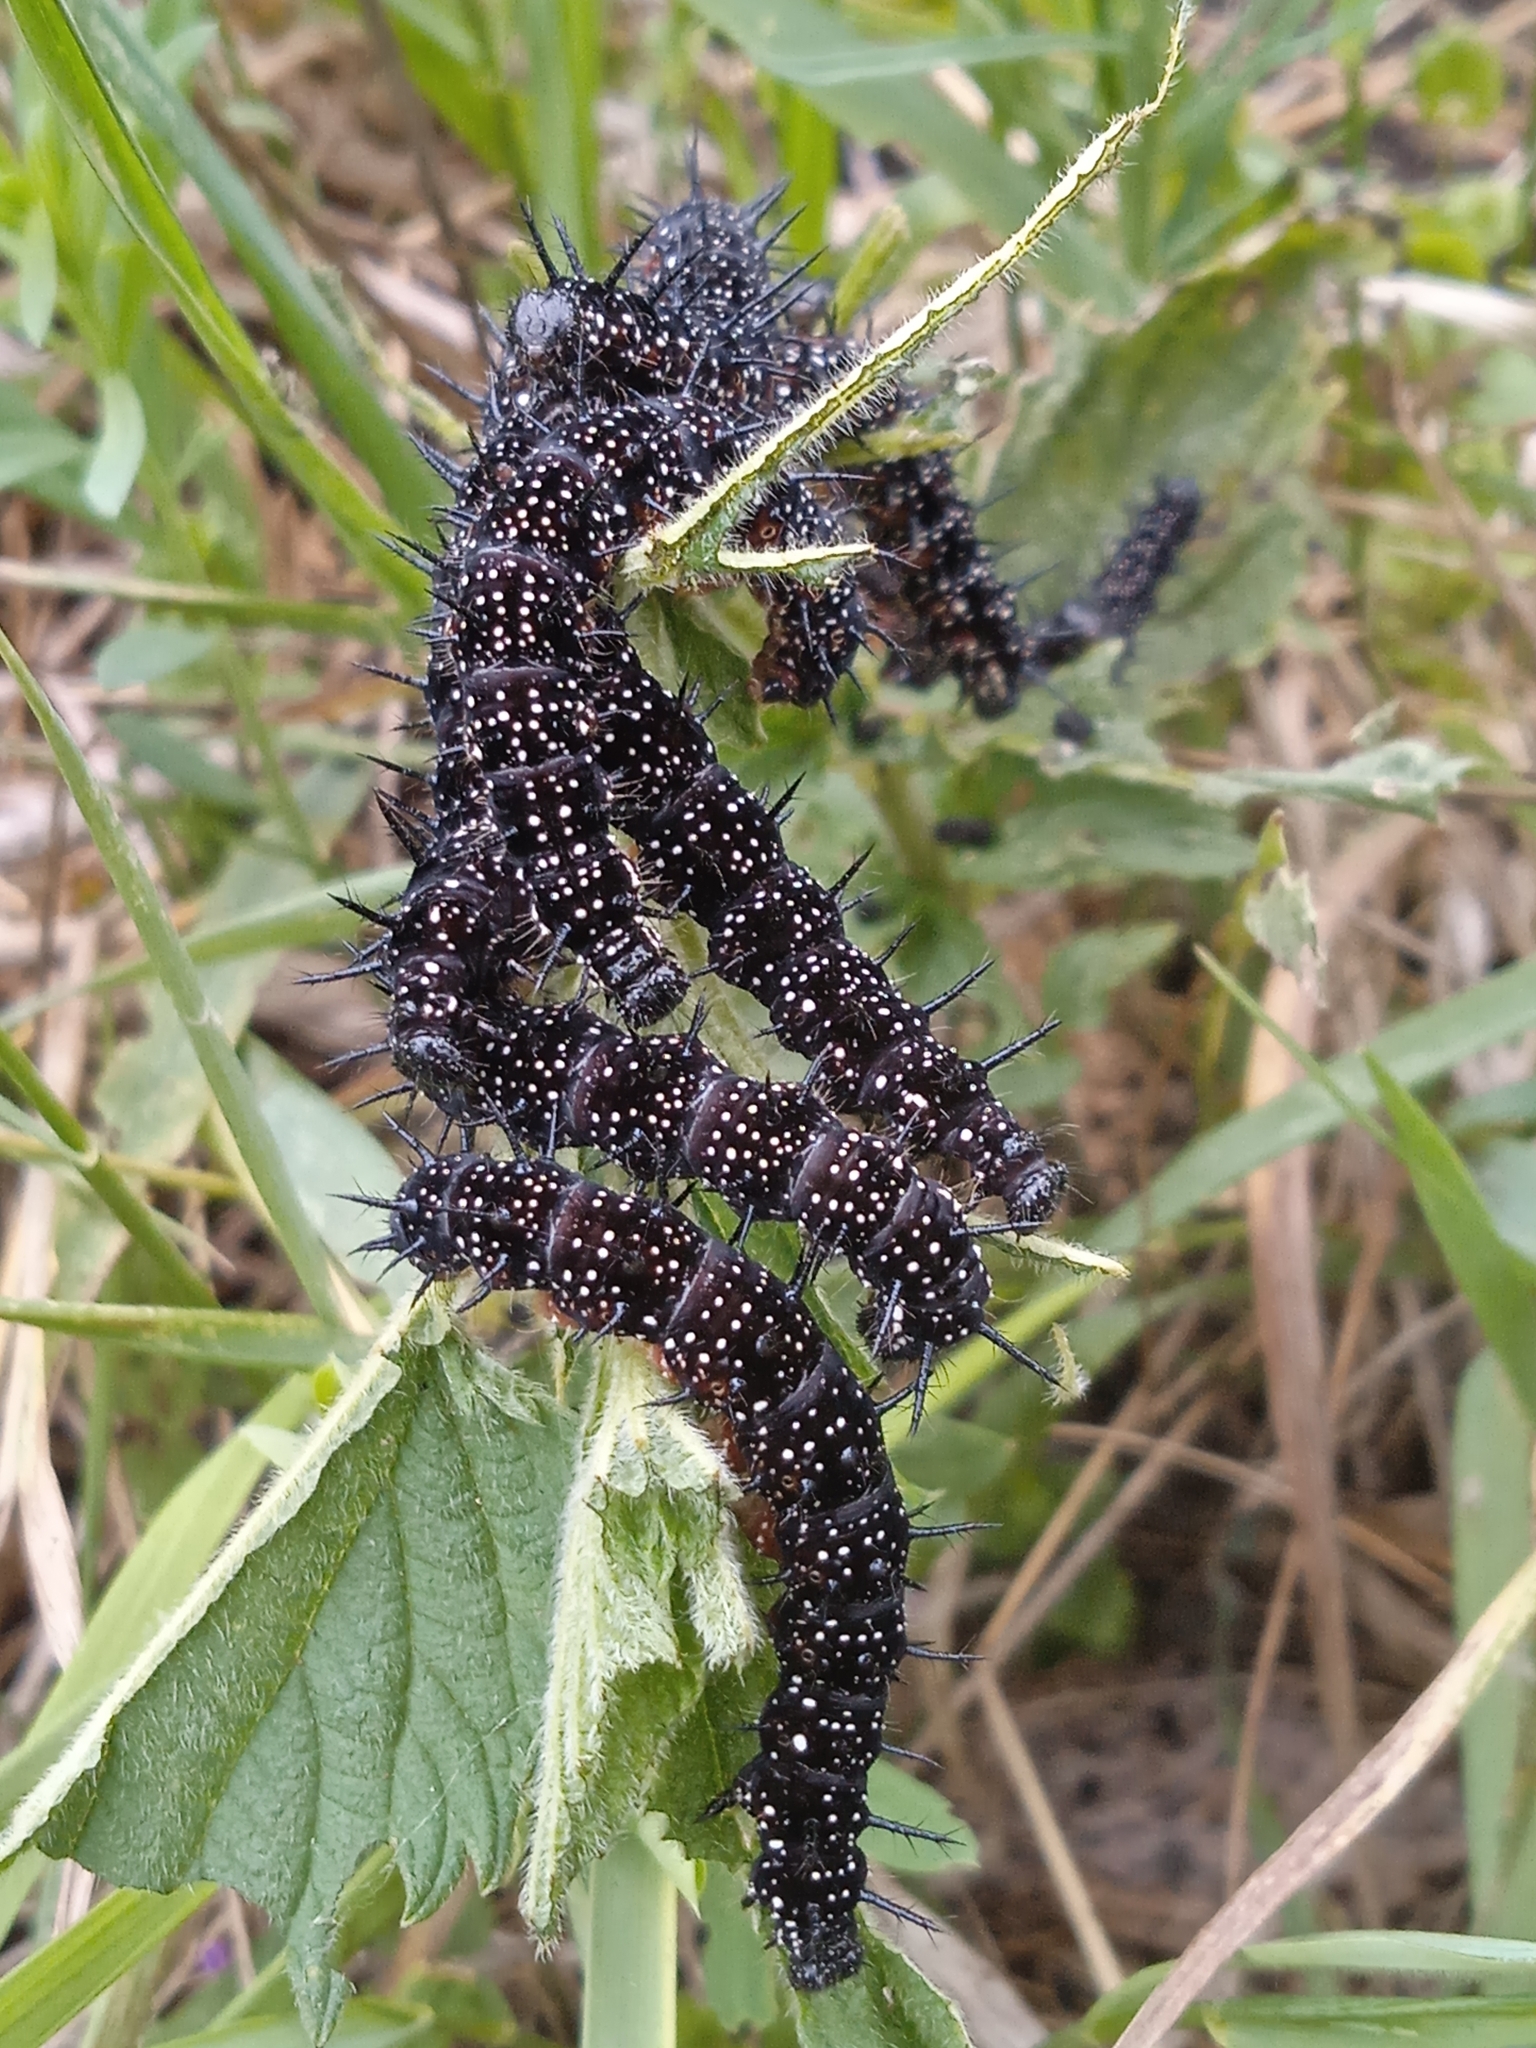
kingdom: Animalia
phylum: Arthropoda
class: Insecta
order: Lepidoptera
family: Nymphalidae
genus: Aglais
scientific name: Aglais io
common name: Peacock
